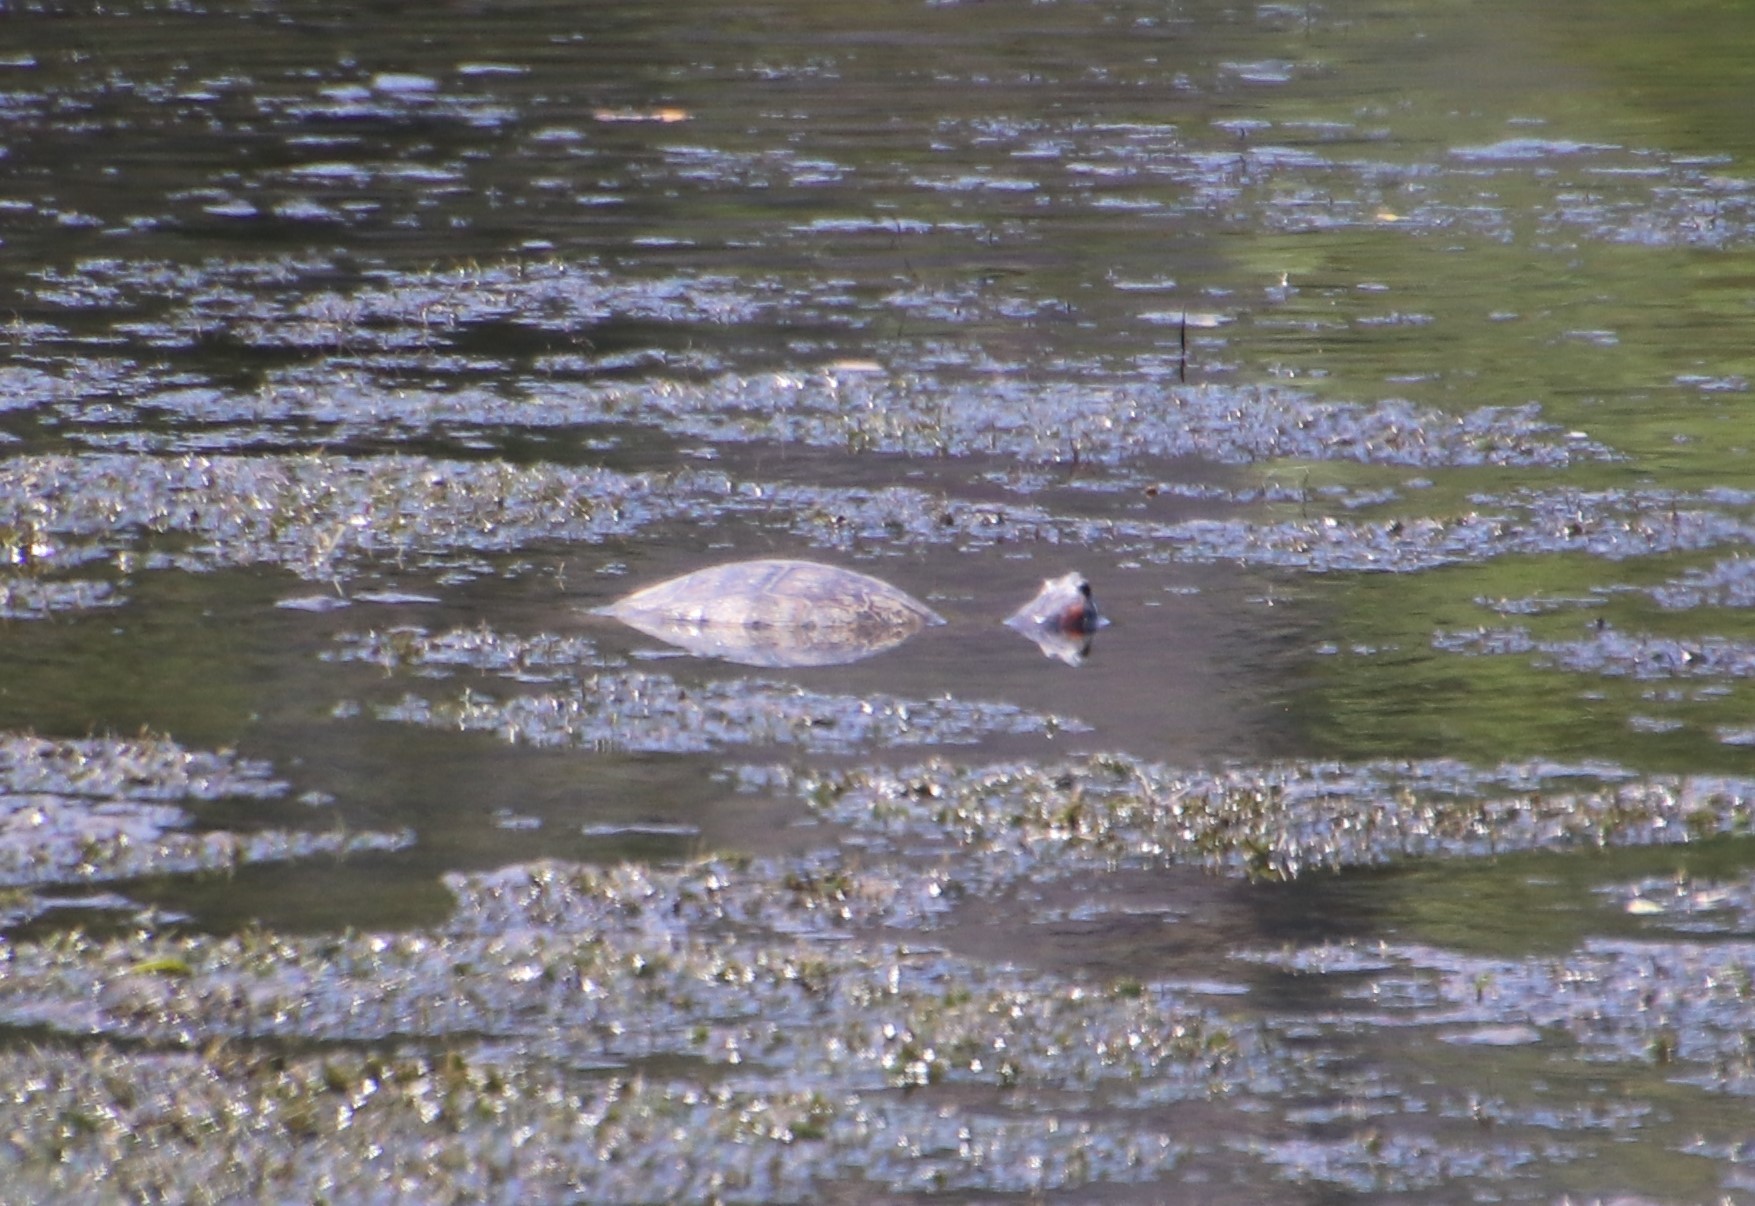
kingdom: Animalia
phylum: Chordata
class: Testudines
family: Emydidae
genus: Trachemys
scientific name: Trachemys scripta
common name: Slider
